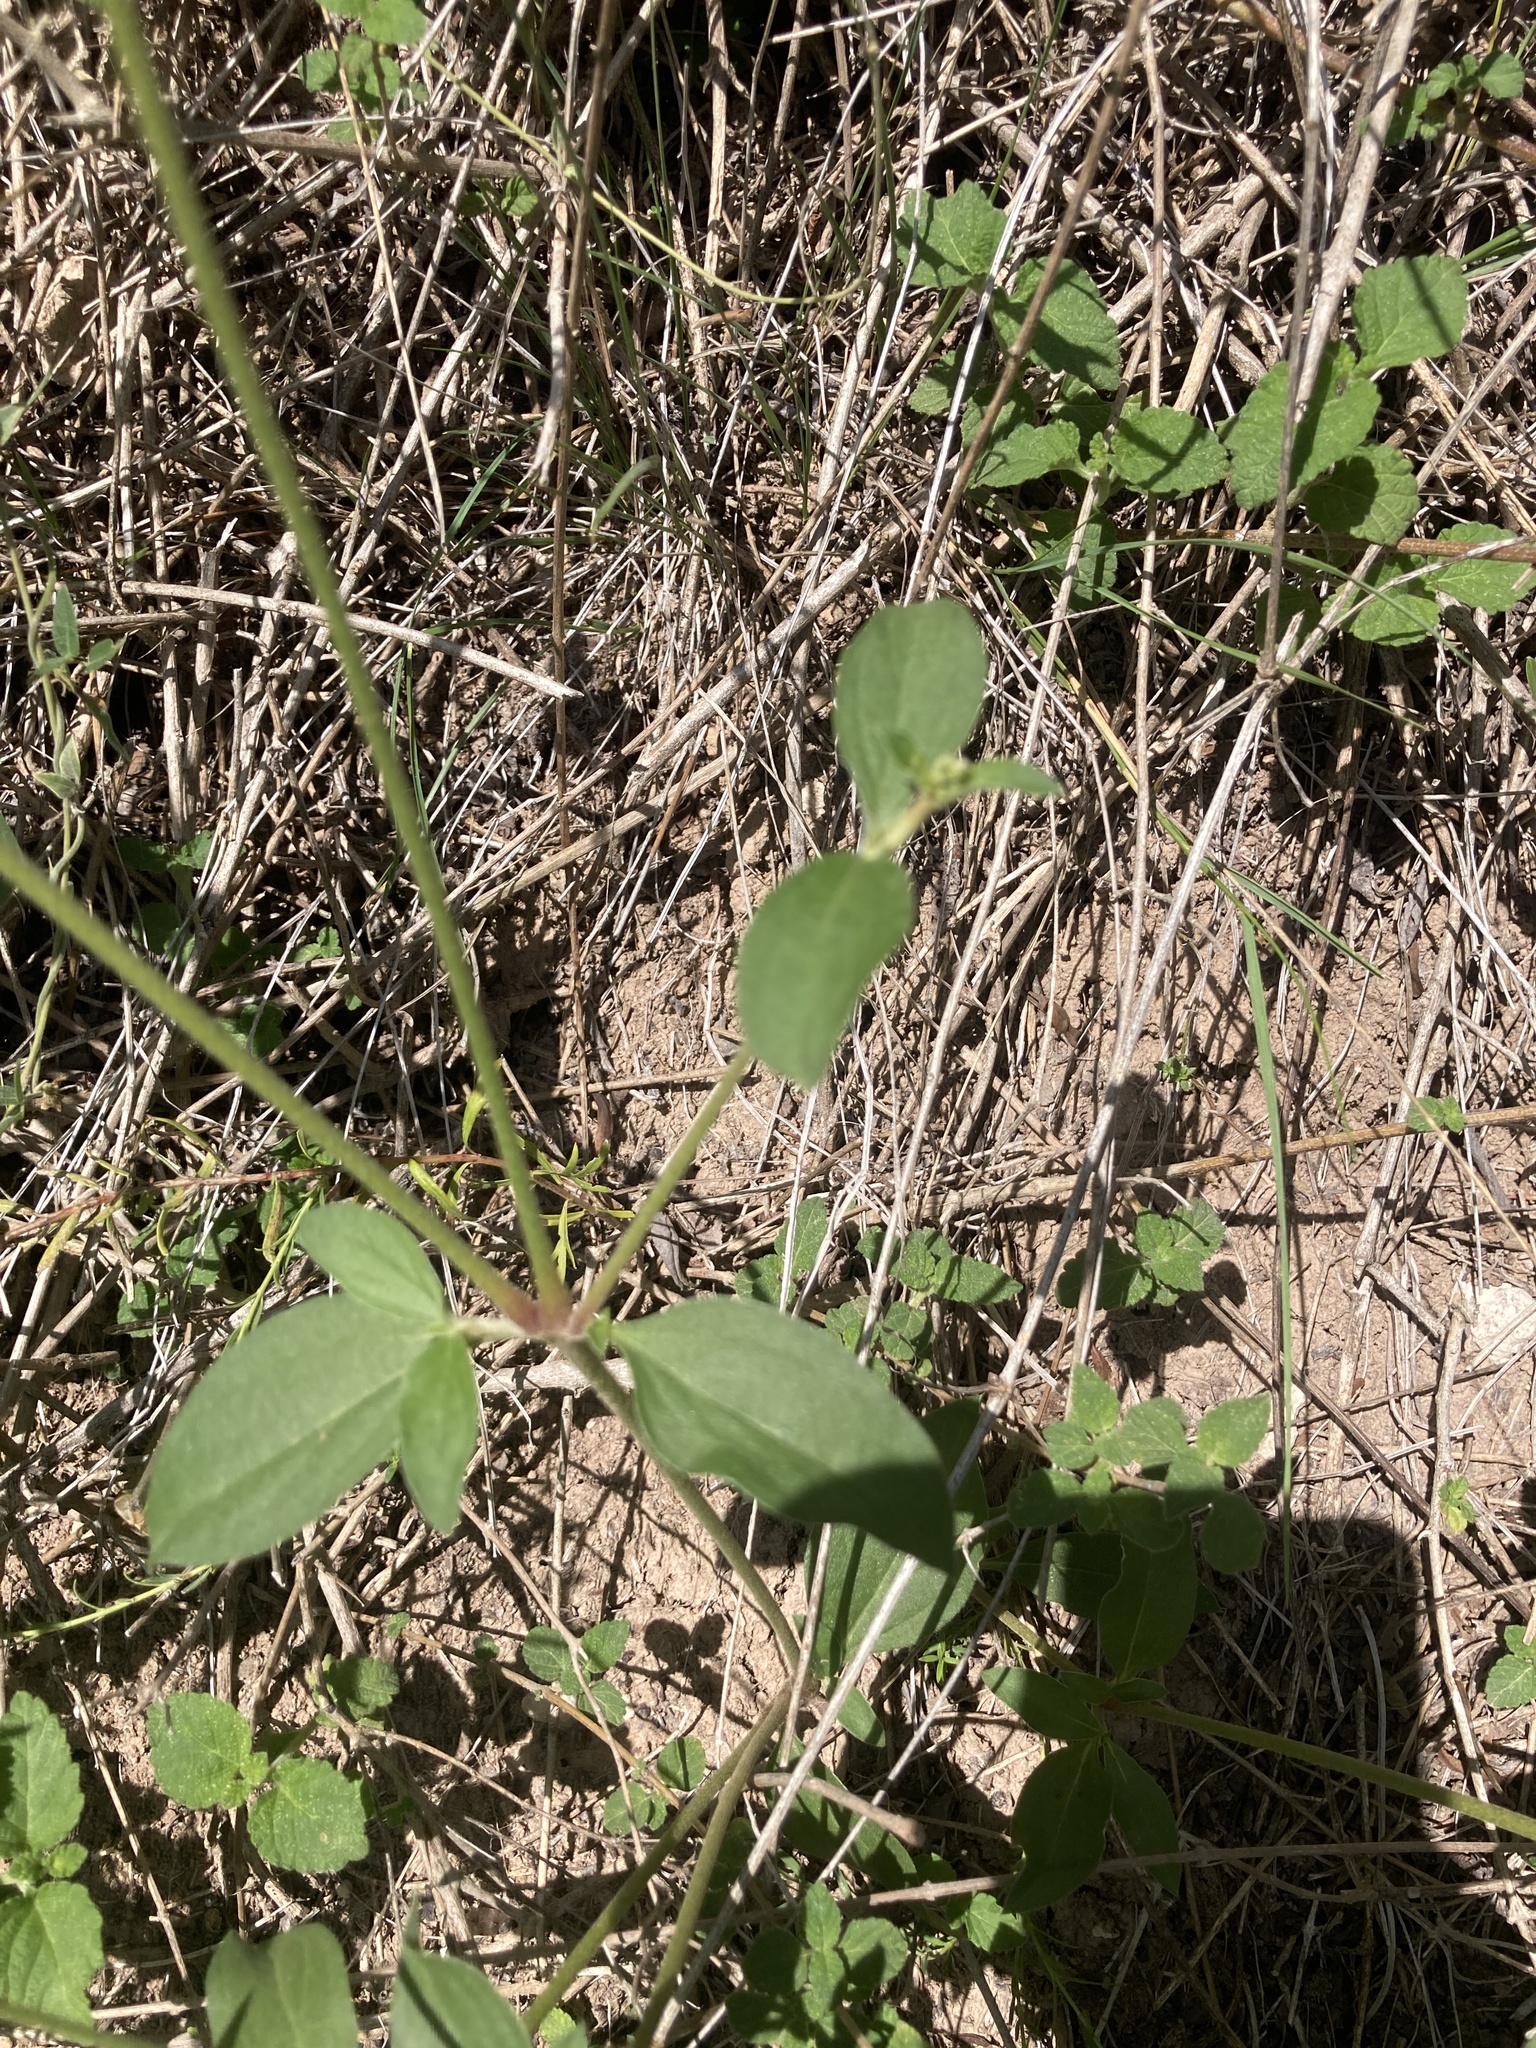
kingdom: Plantae
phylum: Tracheophyta
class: Magnoliopsida
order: Caryophyllales
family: Amaranthaceae
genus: Gomphrena
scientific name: Gomphrena perennis
